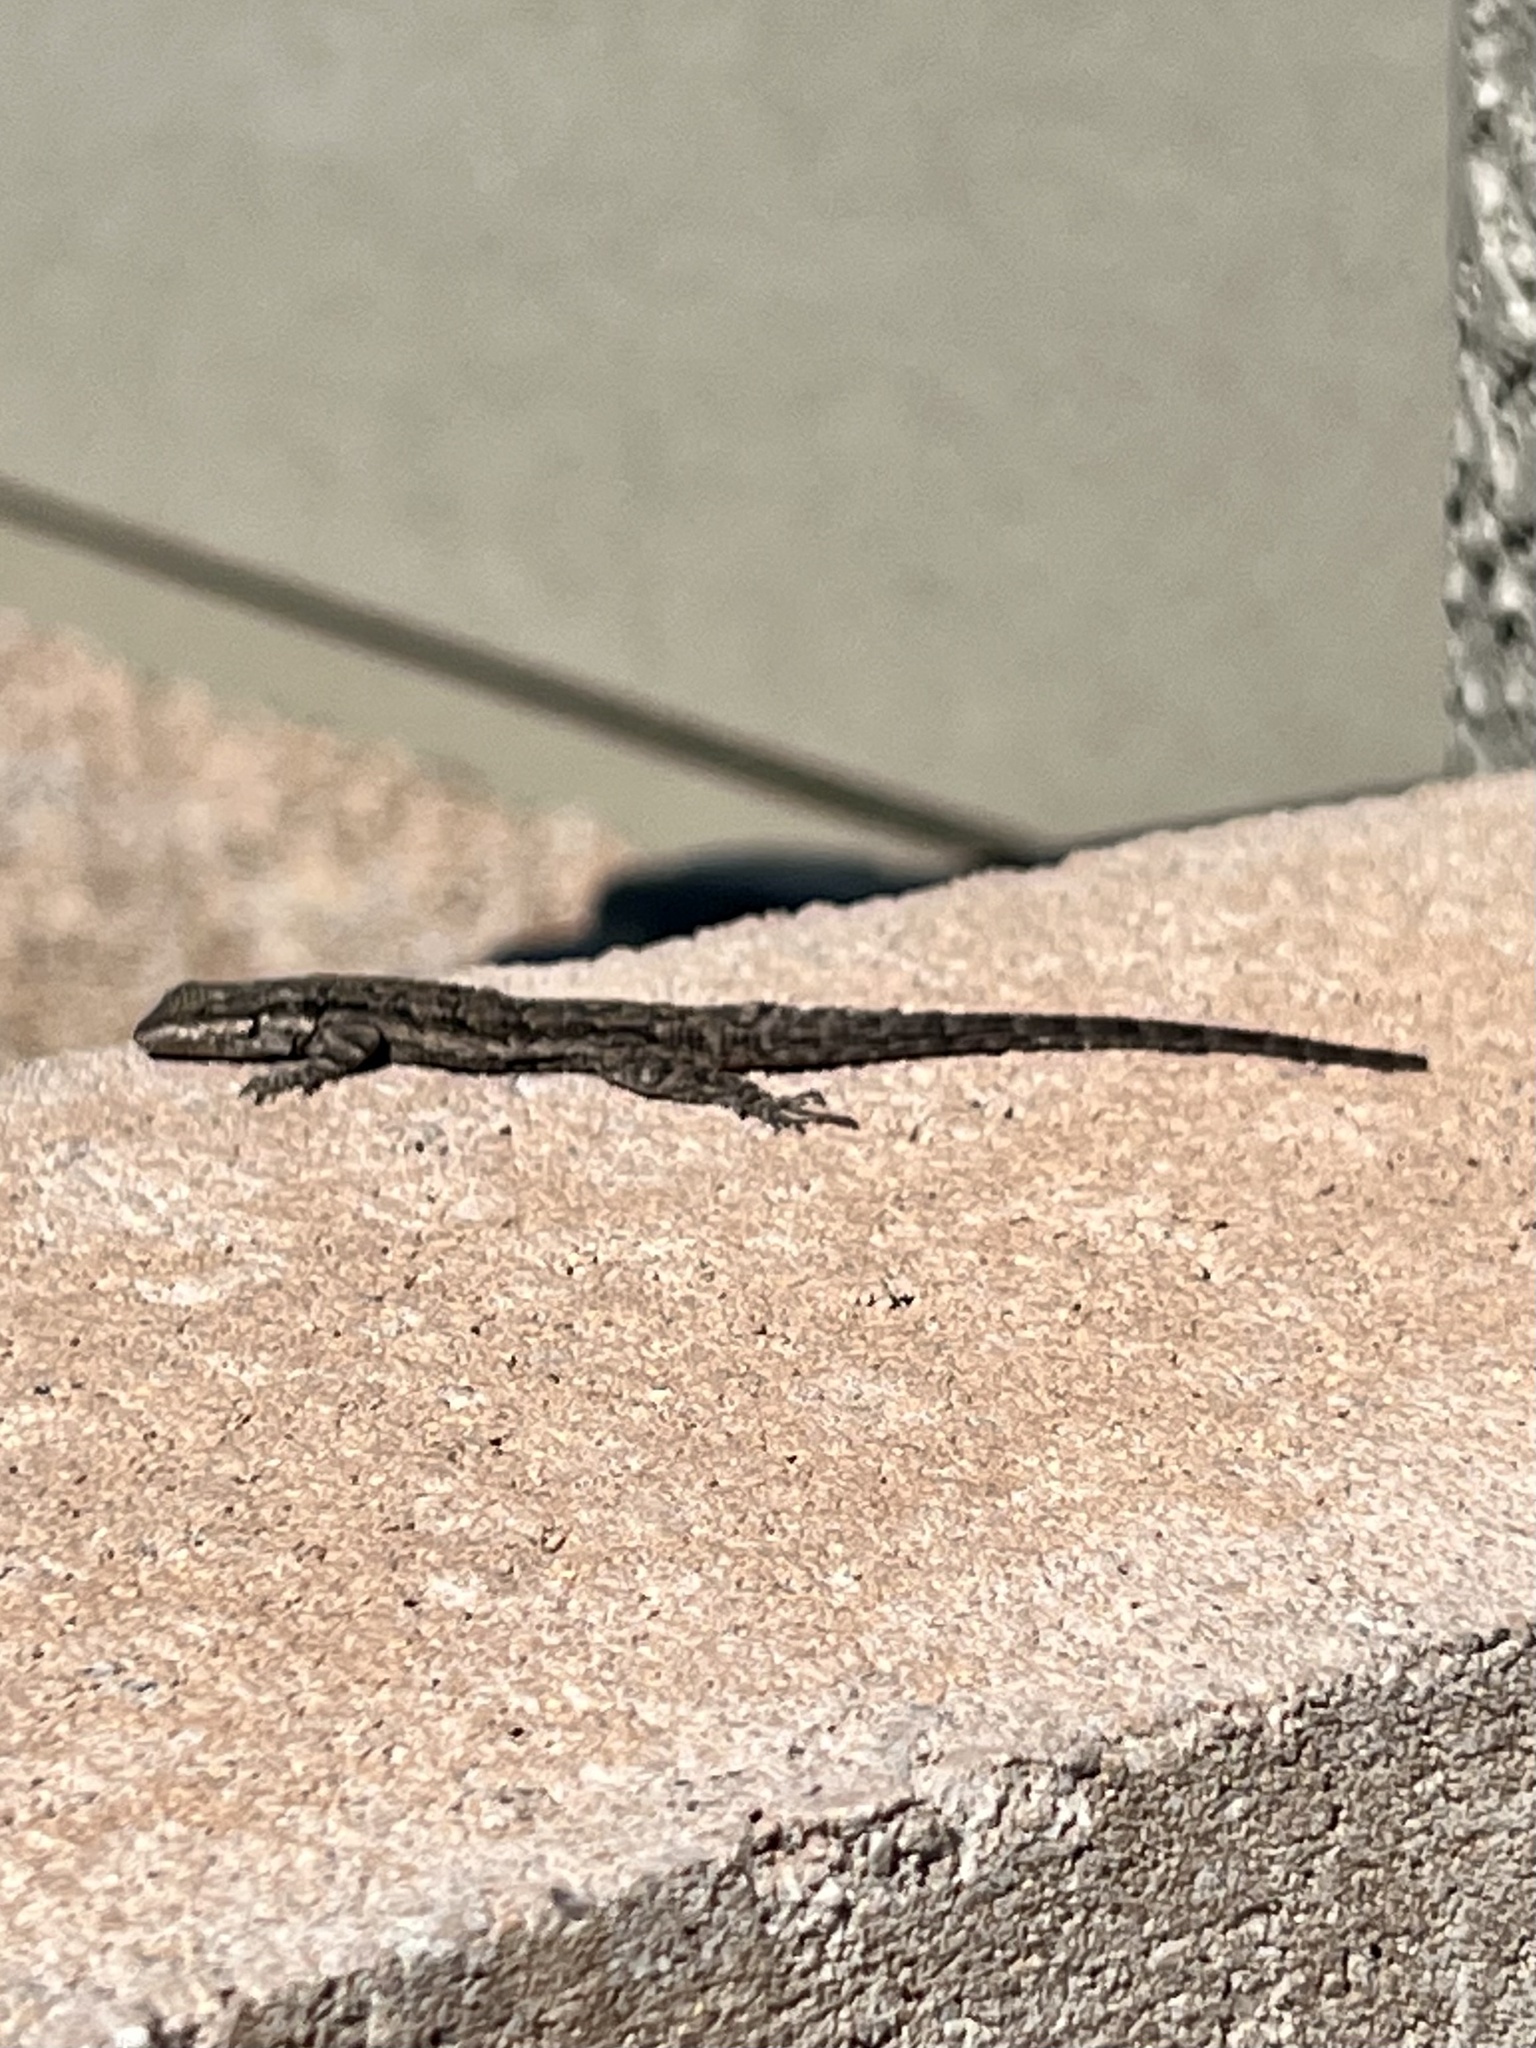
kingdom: Animalia
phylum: Chordata
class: Squamata
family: Phrynosomatidae
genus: Urosaurus
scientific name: Urosaurus ornatus
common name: Ornate tree lizard
